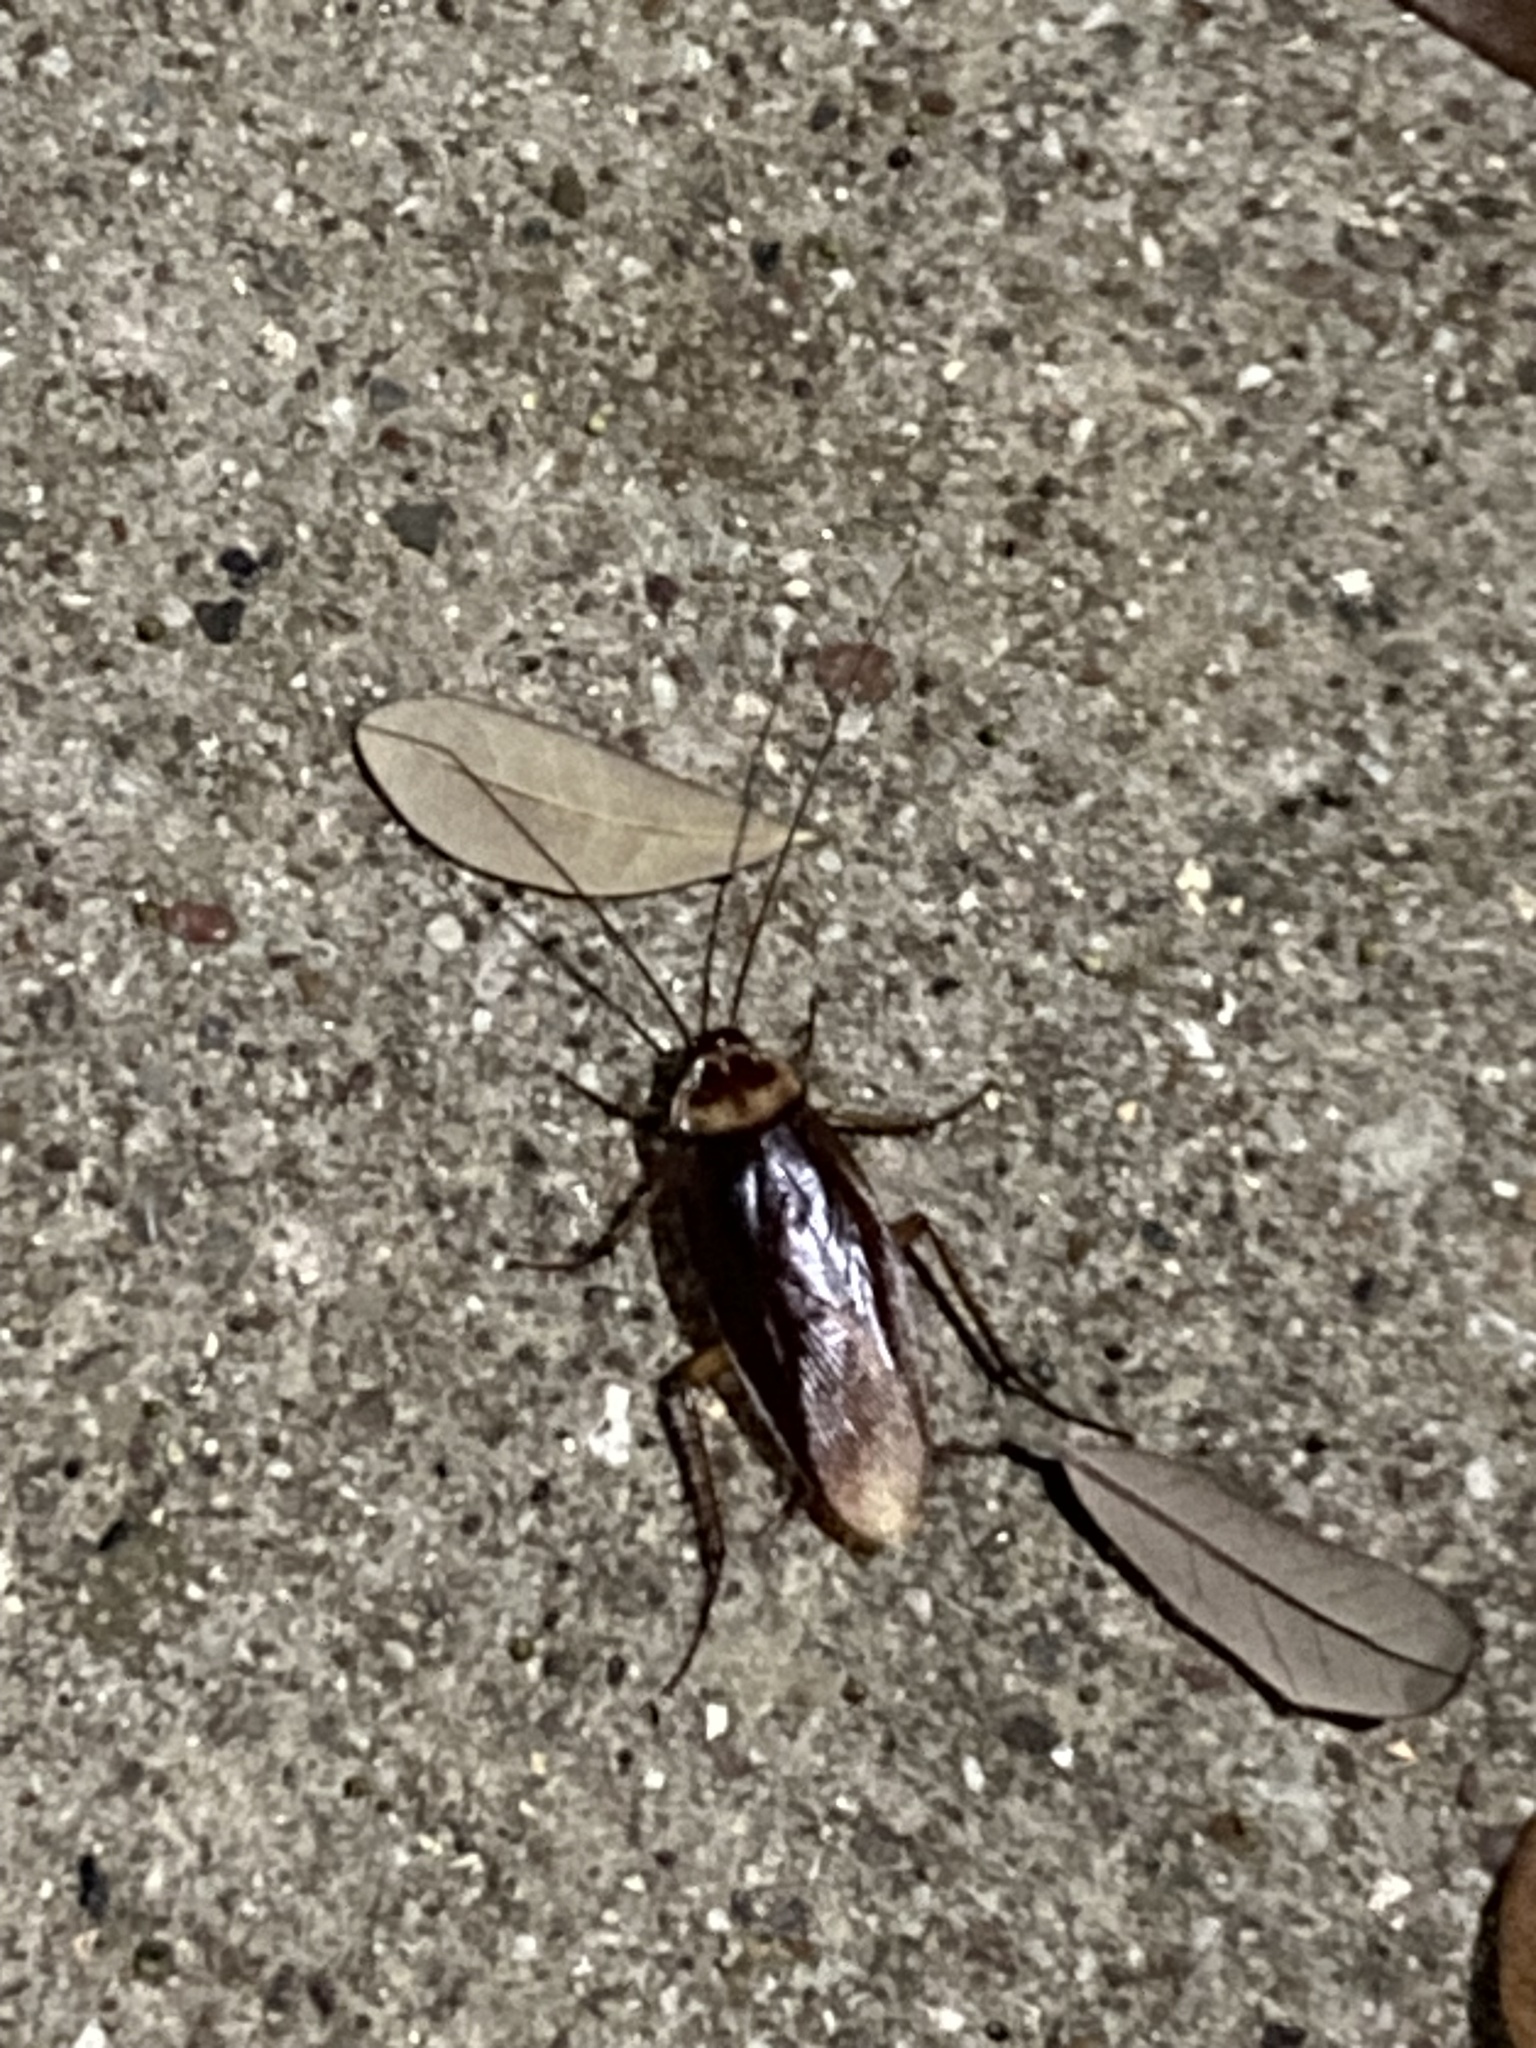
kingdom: Animalia
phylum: Arthropoda
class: Insecta
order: Blattodea
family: Blattidae
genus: Periplaneta
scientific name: Periplaneta americana
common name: American cockroach
